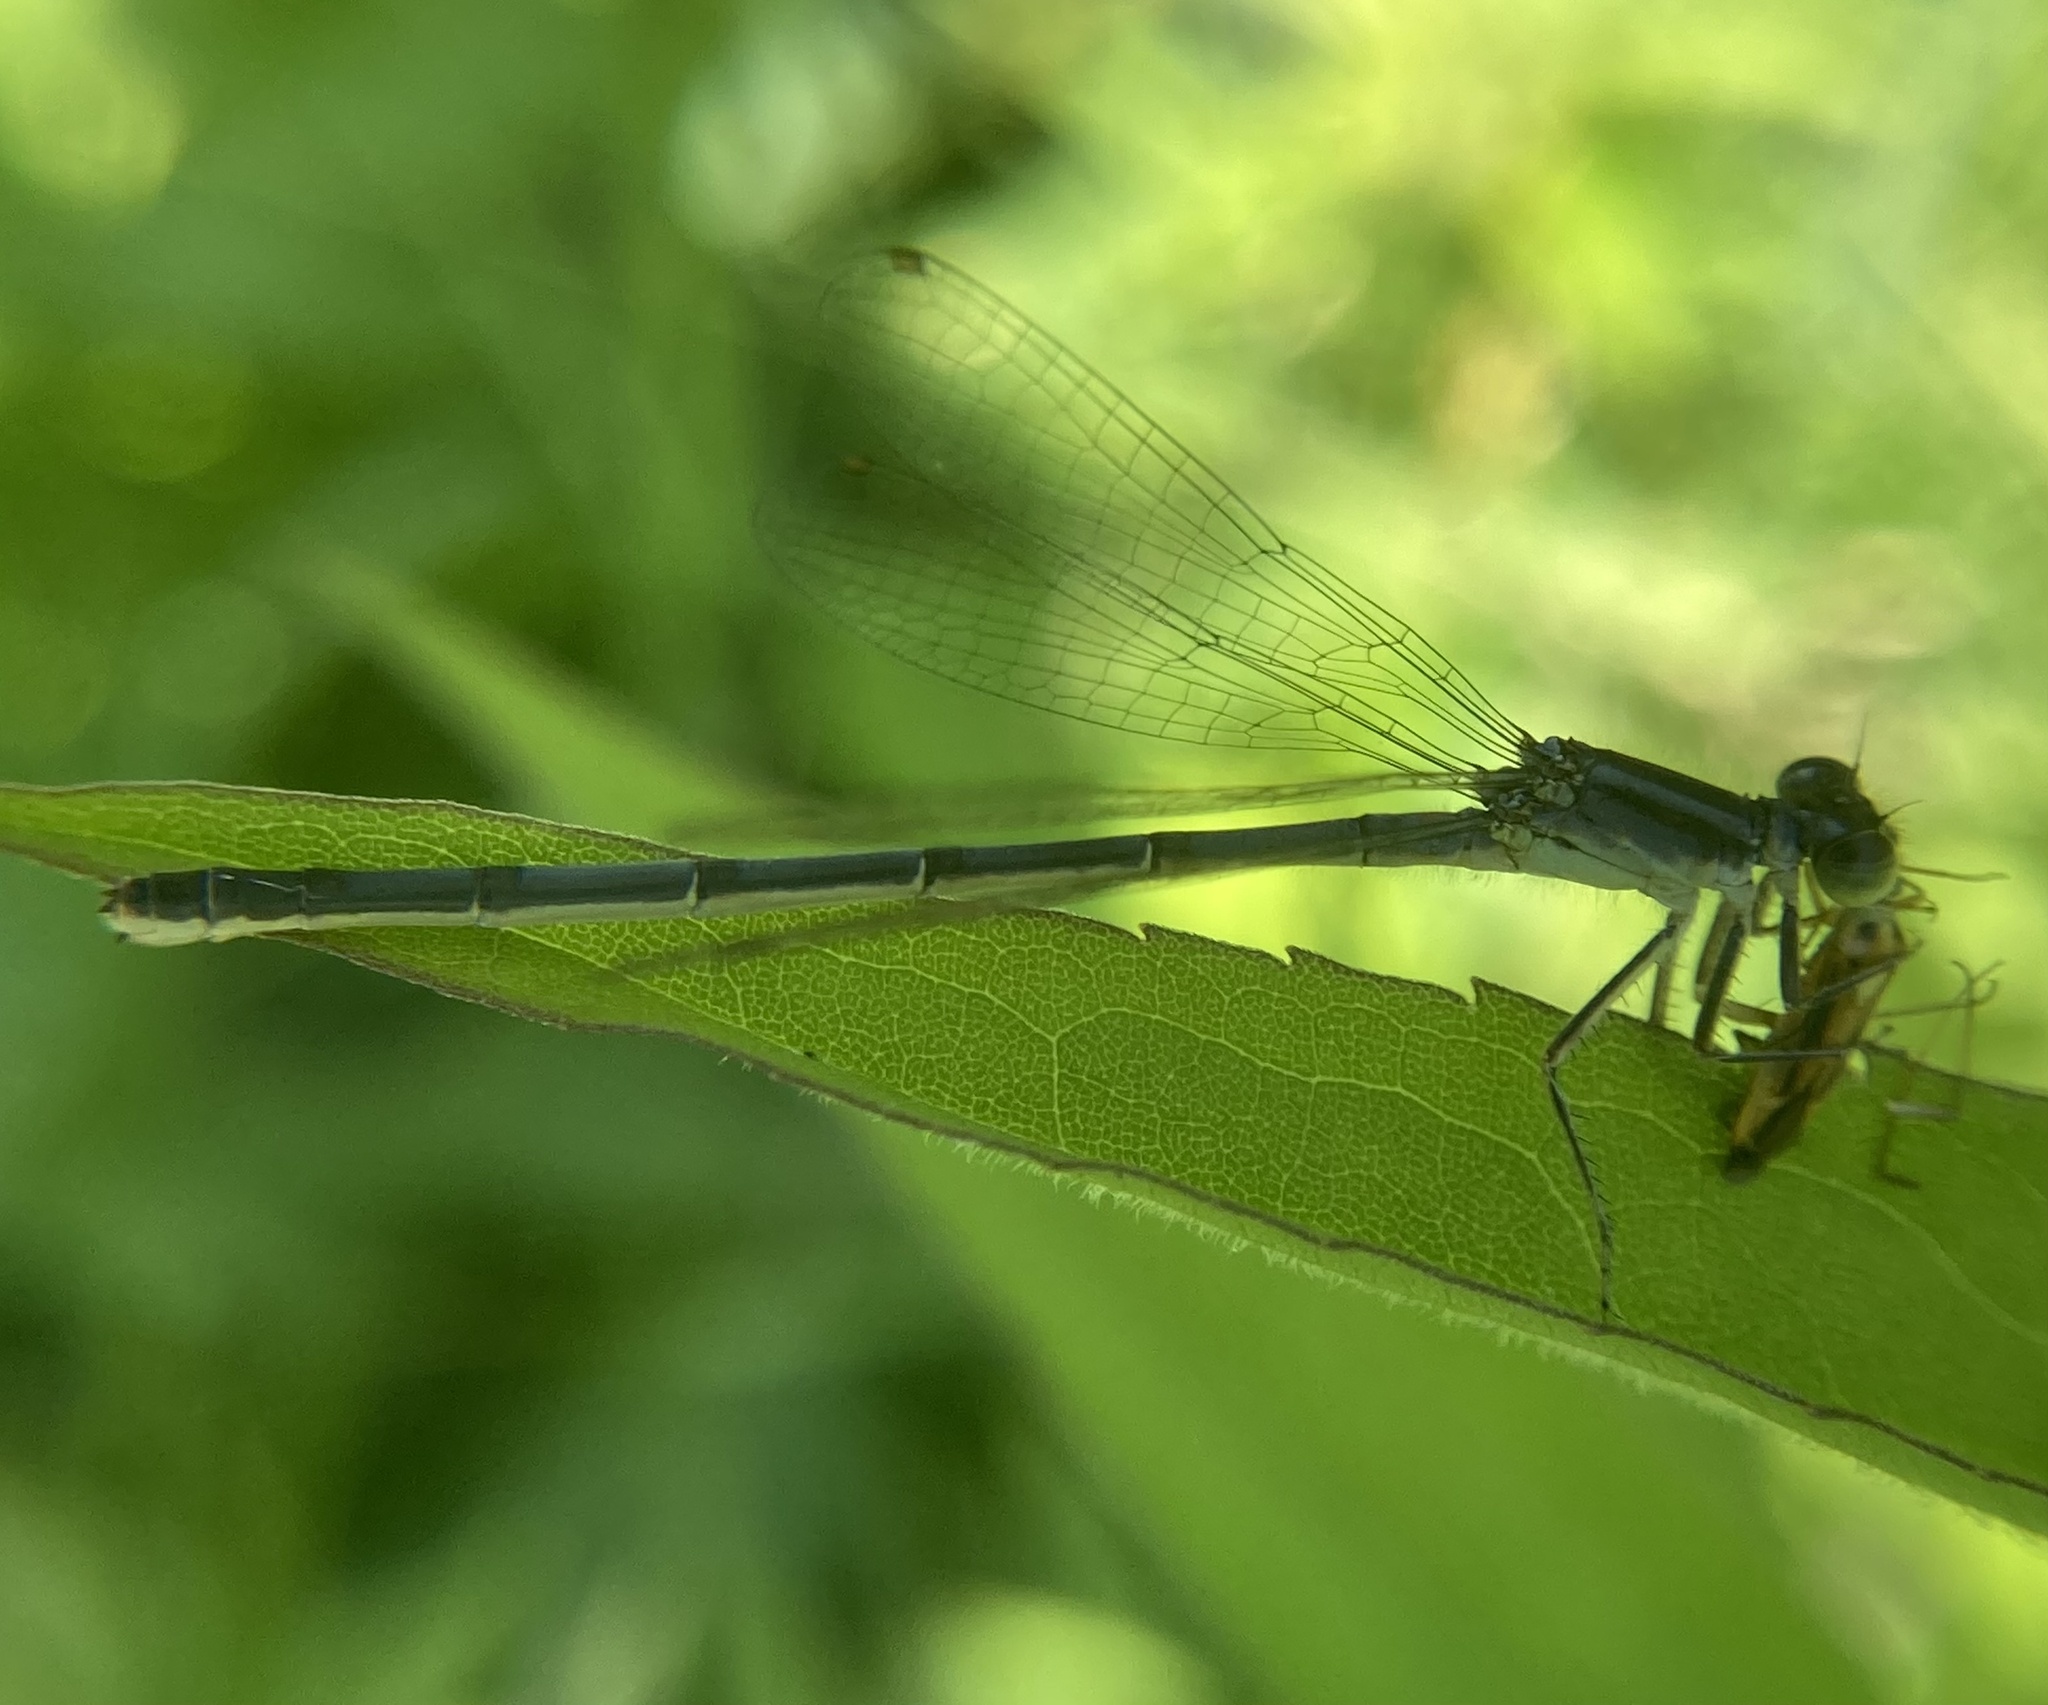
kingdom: Animalia
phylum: Arthropoda
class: Insecta
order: Odonata
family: Coenagrionidae
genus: Ischnura
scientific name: Ischnura verticalis
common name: Eastern forktail
